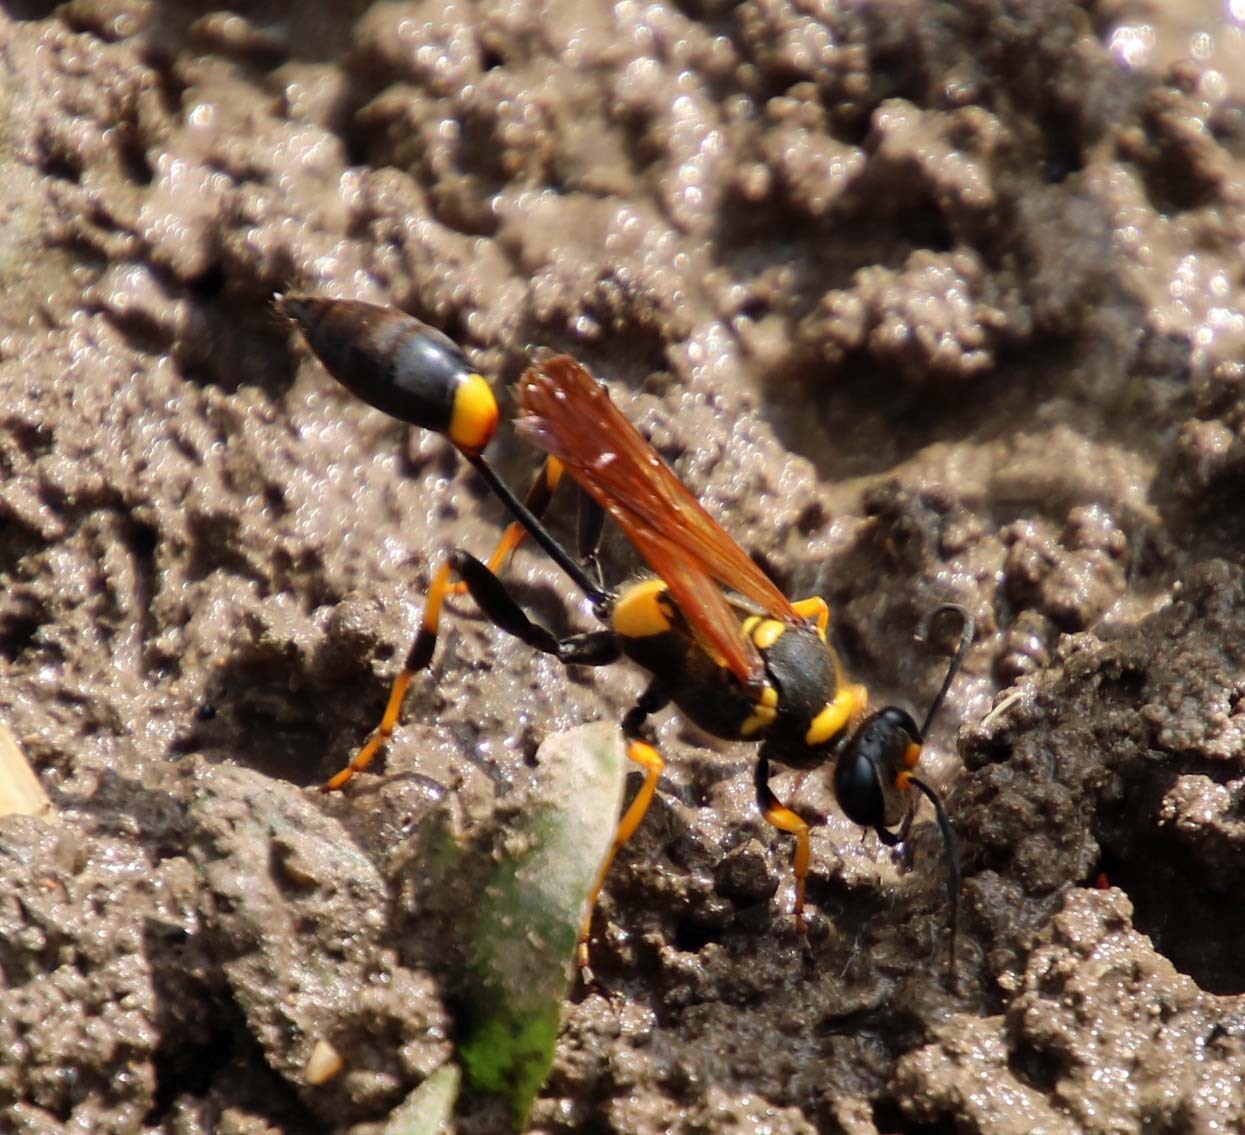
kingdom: Animalia
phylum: Arthropoda
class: Insecta
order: Hymenoptera
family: Sphecidae
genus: Sceliphron
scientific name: Sceliphron caementarium
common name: Mud dauber
